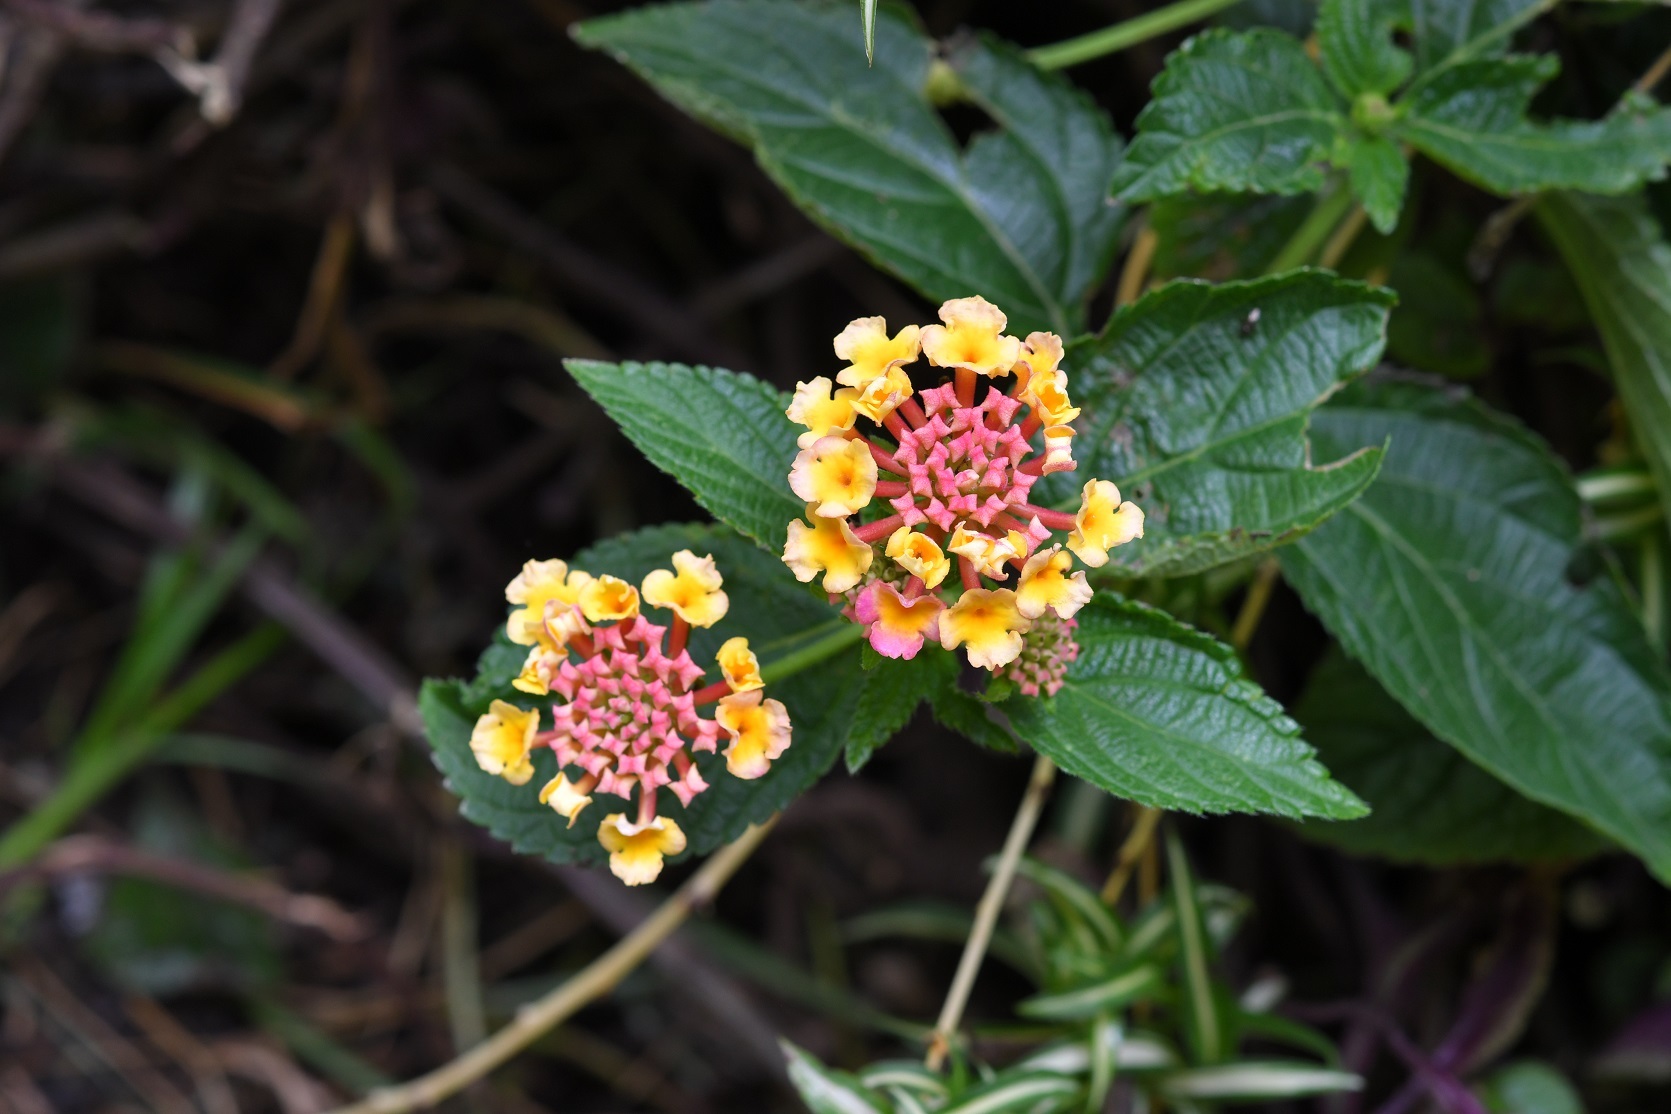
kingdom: Plantae
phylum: Tracheophyta
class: Magnoliopsida
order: Lamiales
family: Verbenaceae
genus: Lantana
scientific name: Lantana camara
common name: Lantana
